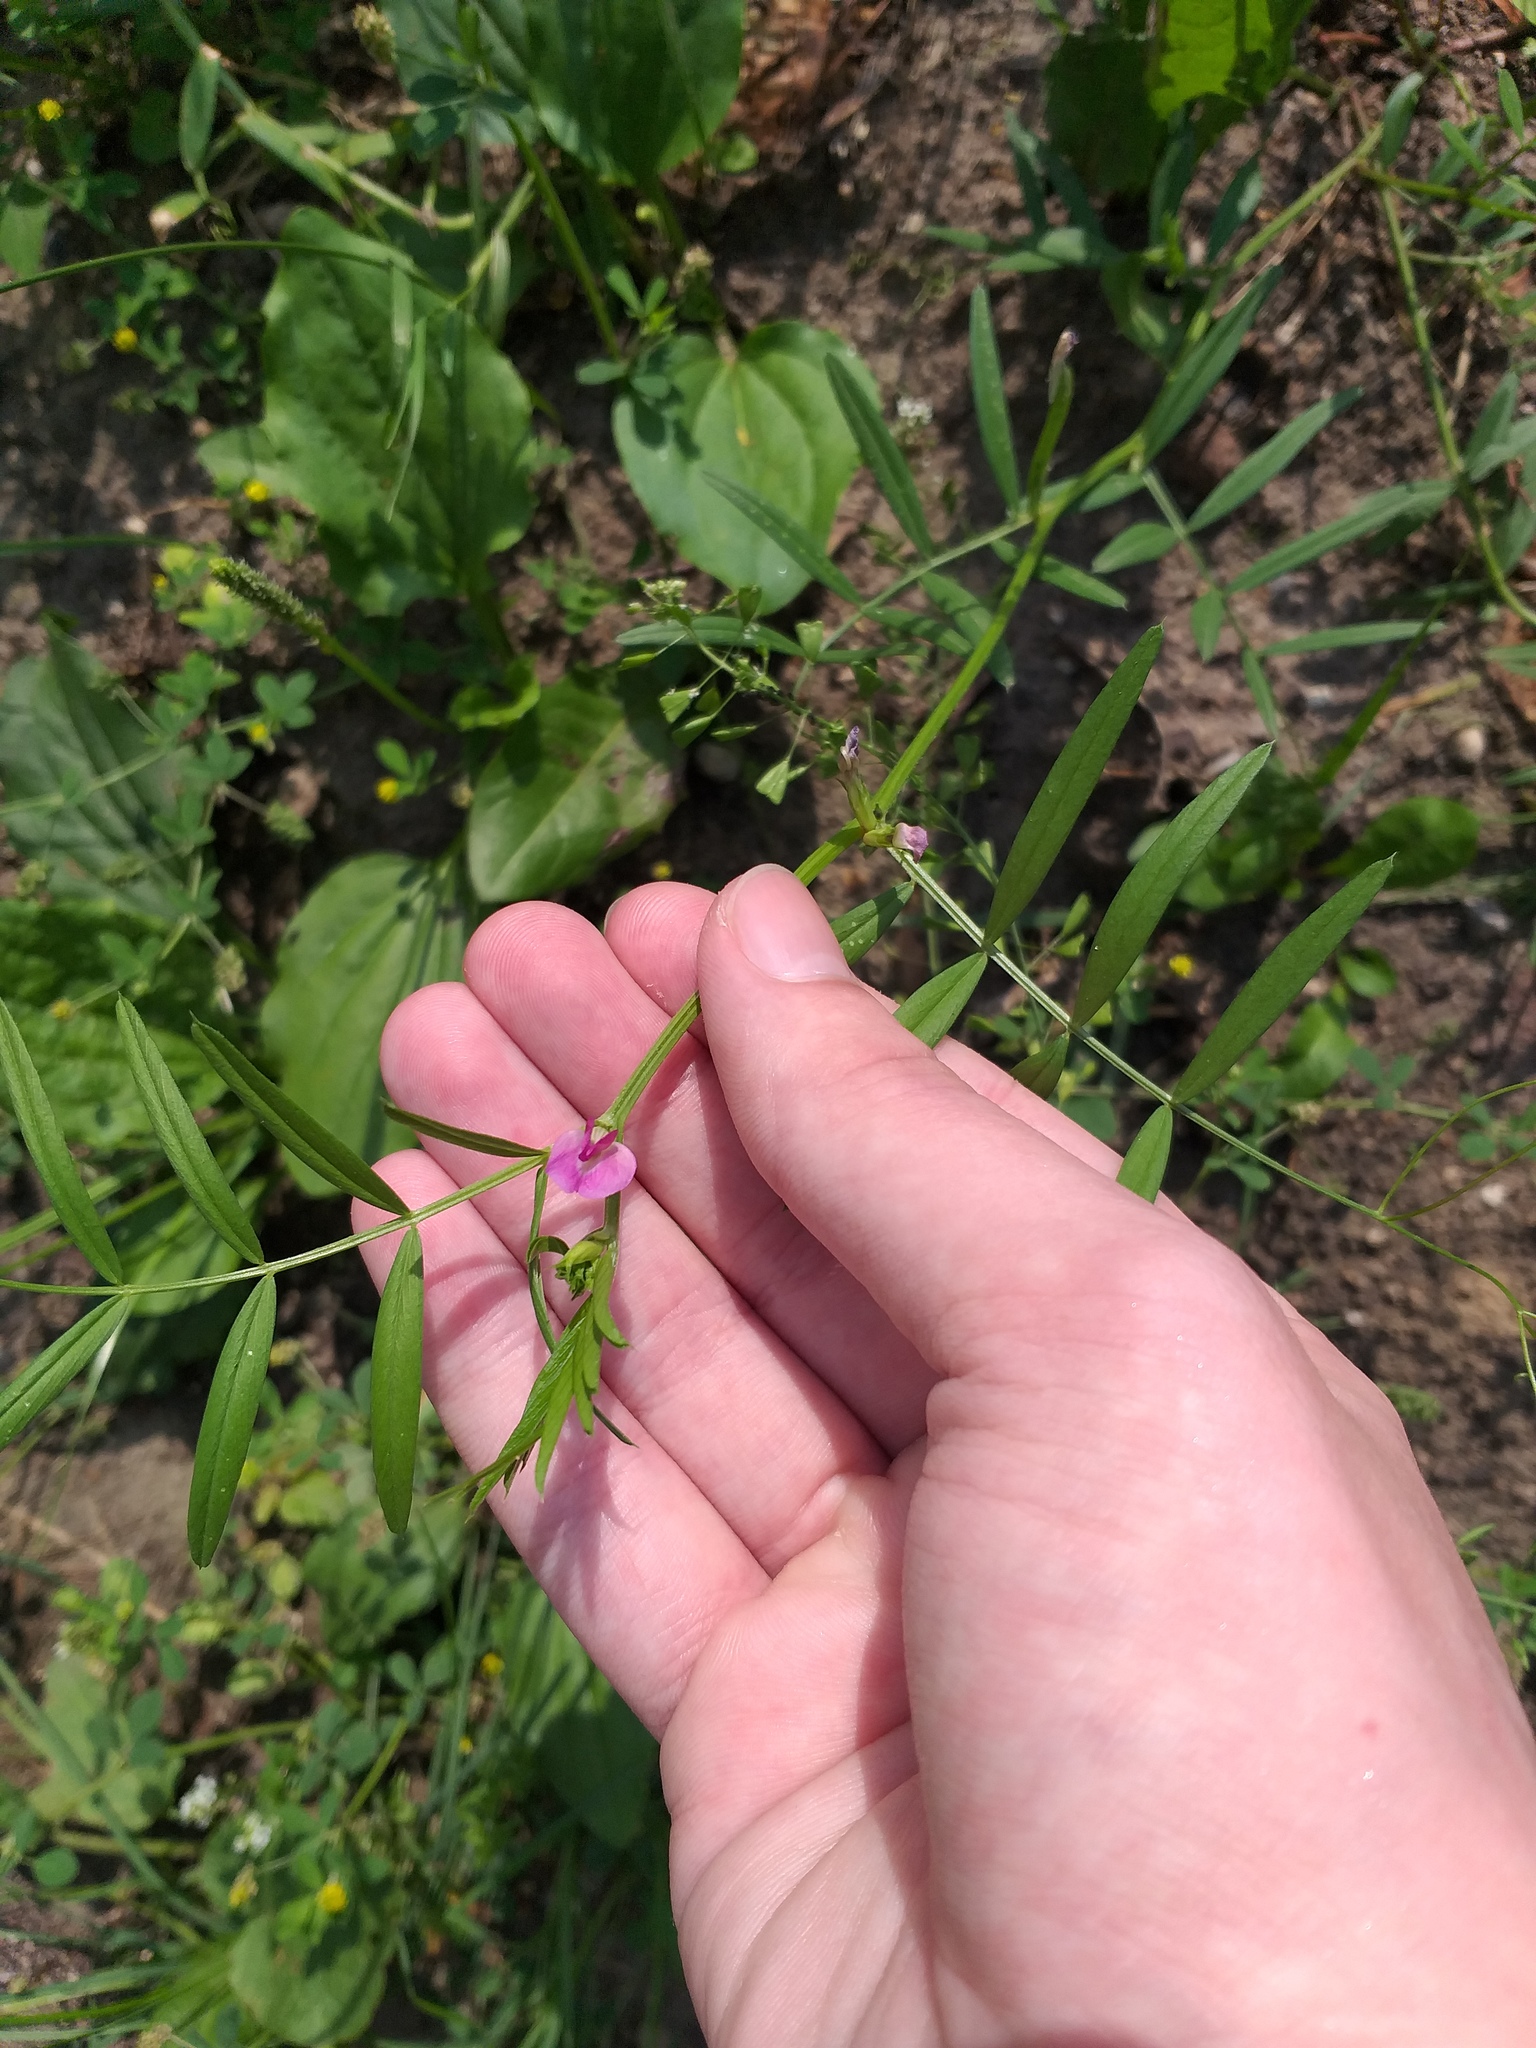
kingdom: Plantae
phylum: Tracheophyta
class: Magnoliopsida
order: Fabales
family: Fabaceae
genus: Vicia
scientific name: Vicia sativa
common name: Garden vetch
